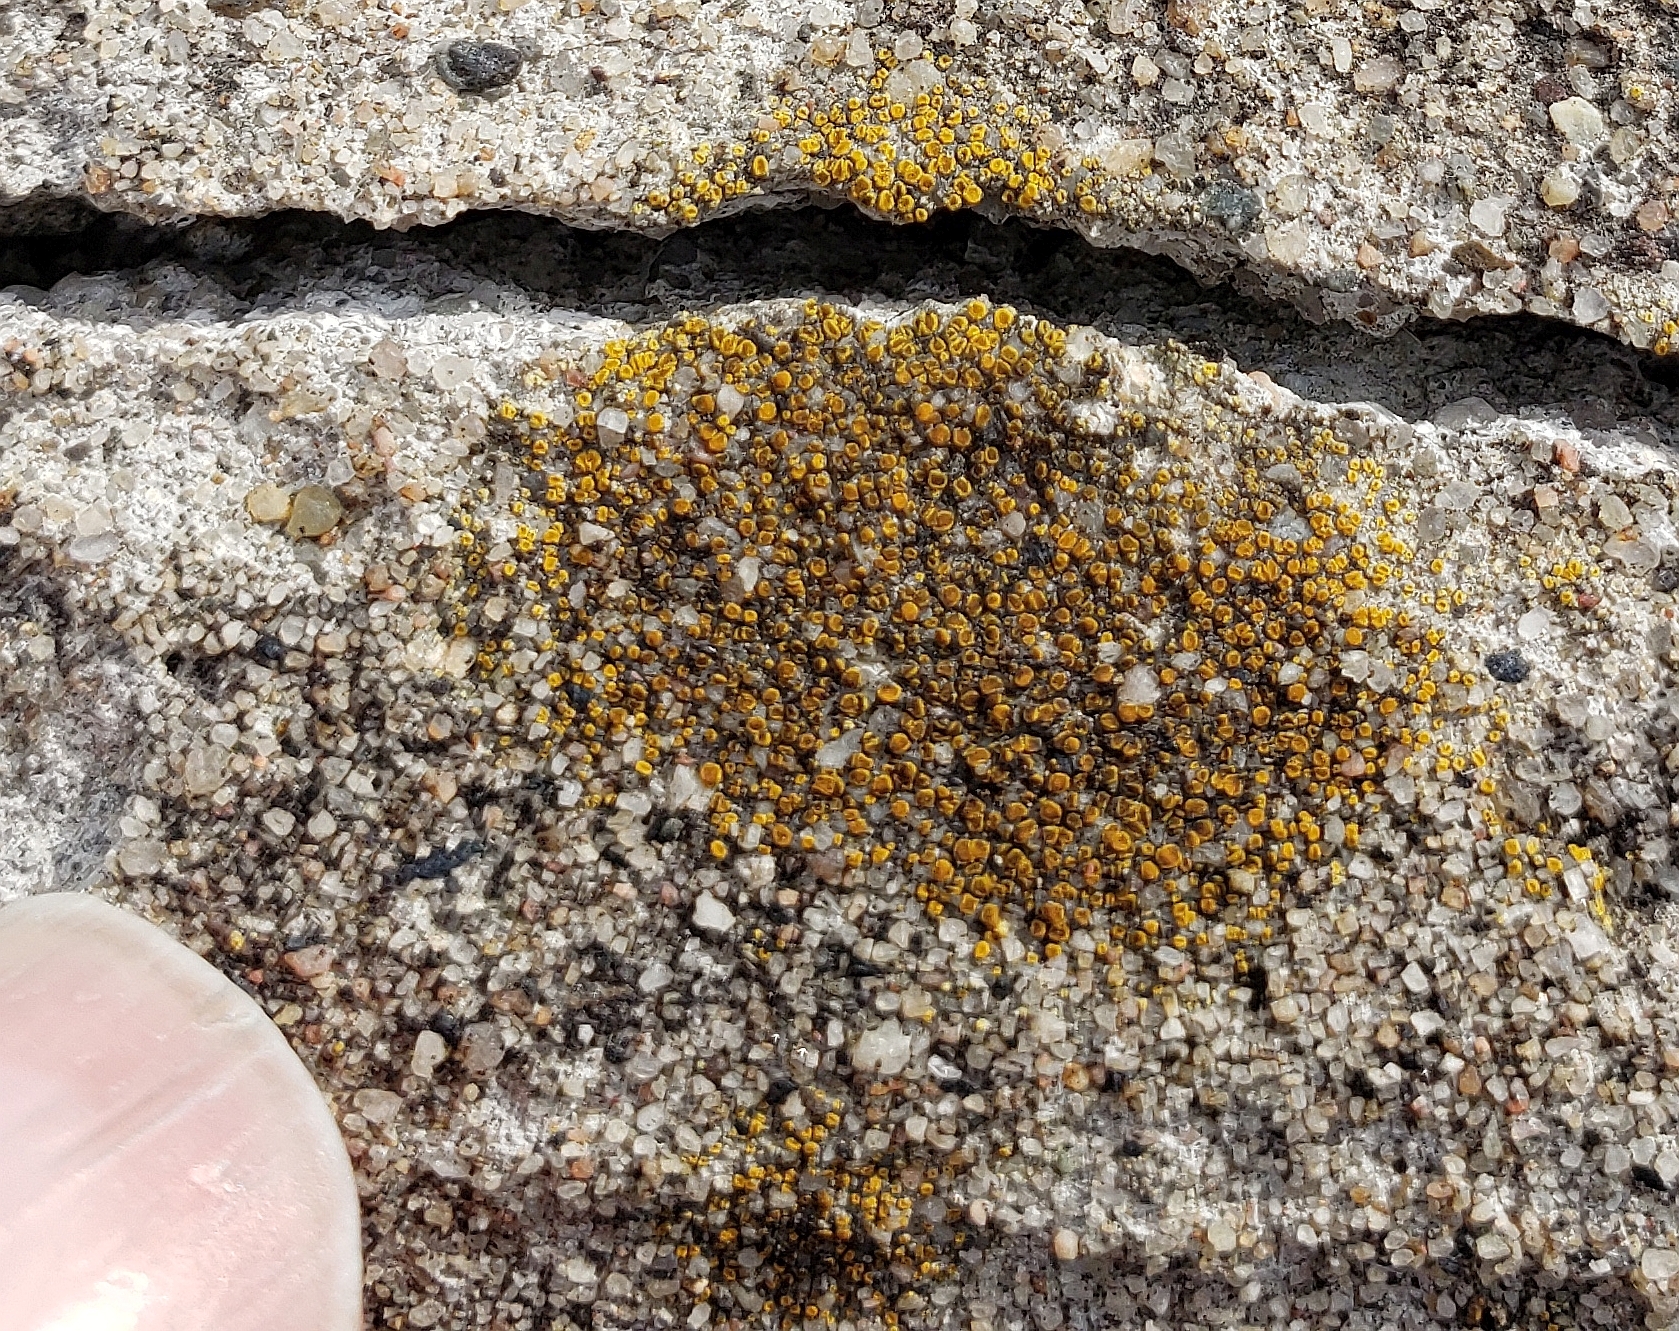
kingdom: Fungi
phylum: Ascomycota
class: Lecanoromycetes
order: Teloschistales
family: Teloschistaceae
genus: Xanthocarpia
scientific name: Xanthocarpia feracissima
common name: Sidewalk firedot
